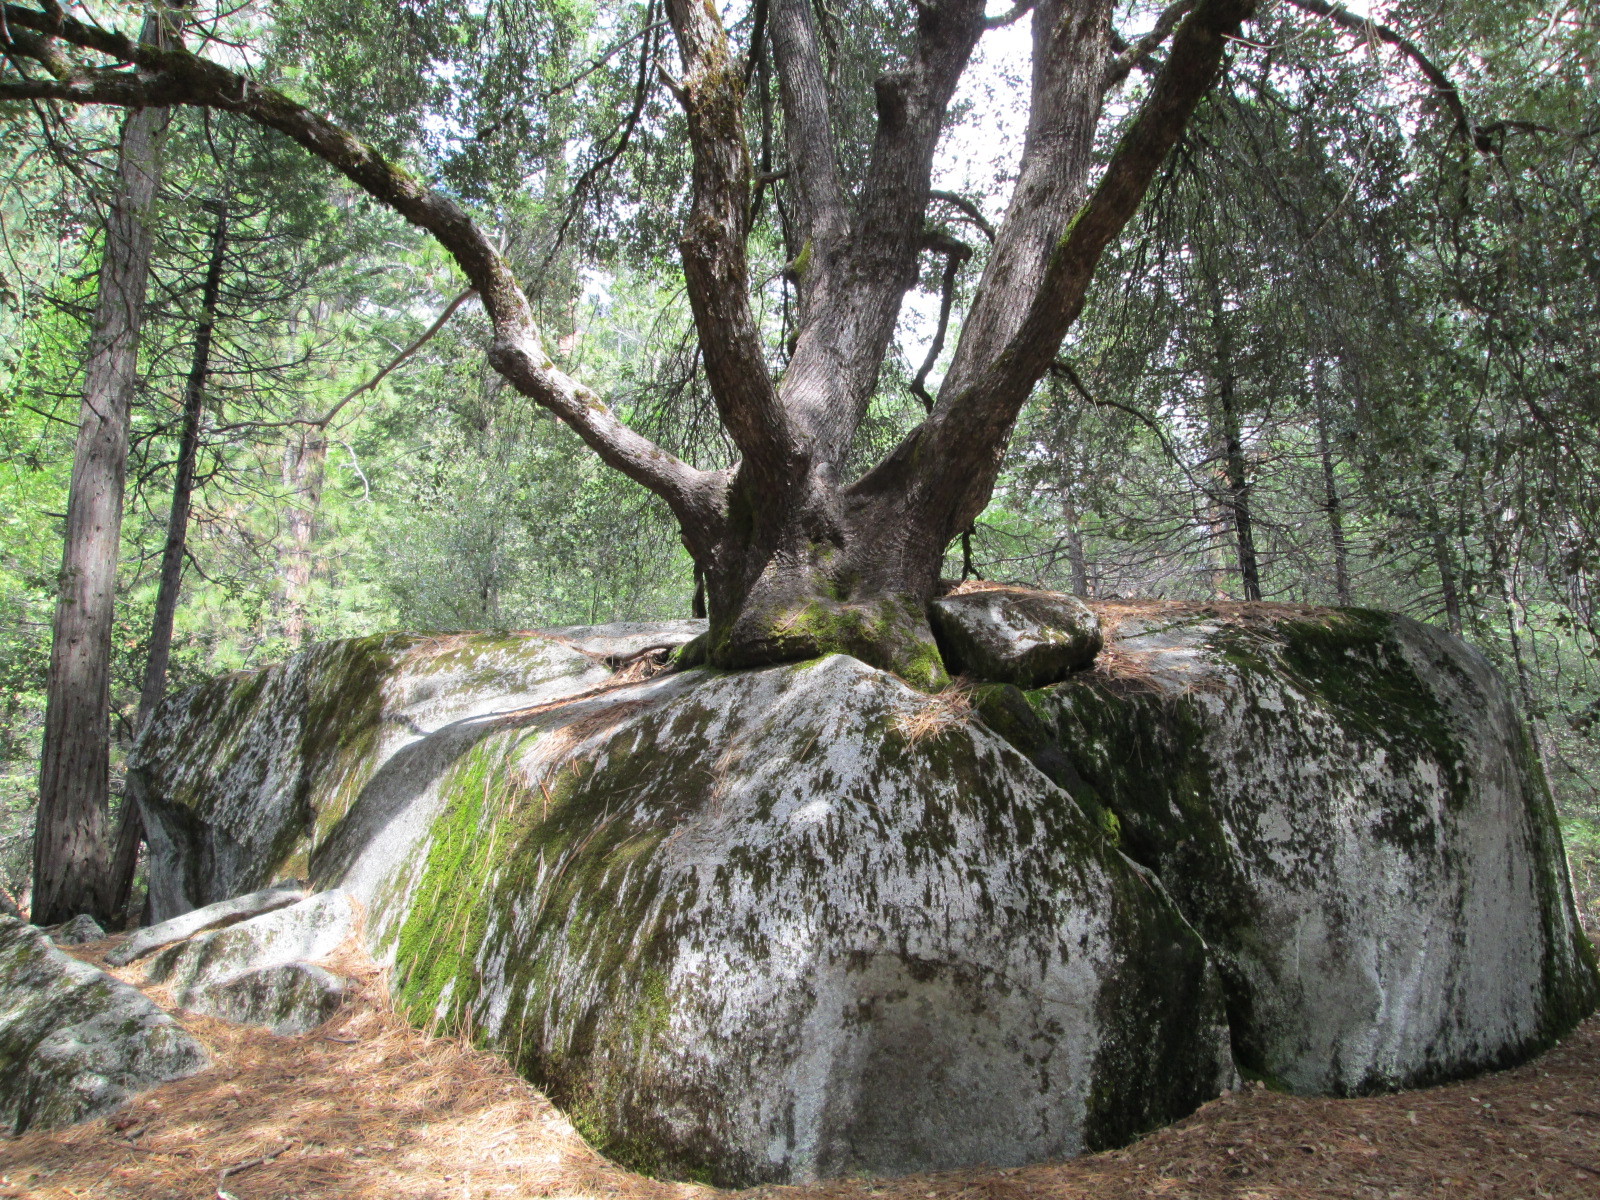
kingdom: Plantae
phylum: Tracheophyta
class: Magnoliopsida
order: Fagales
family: Fagaceae
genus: Quercus
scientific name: Quercus chrysolepis
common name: Canyon live oak
